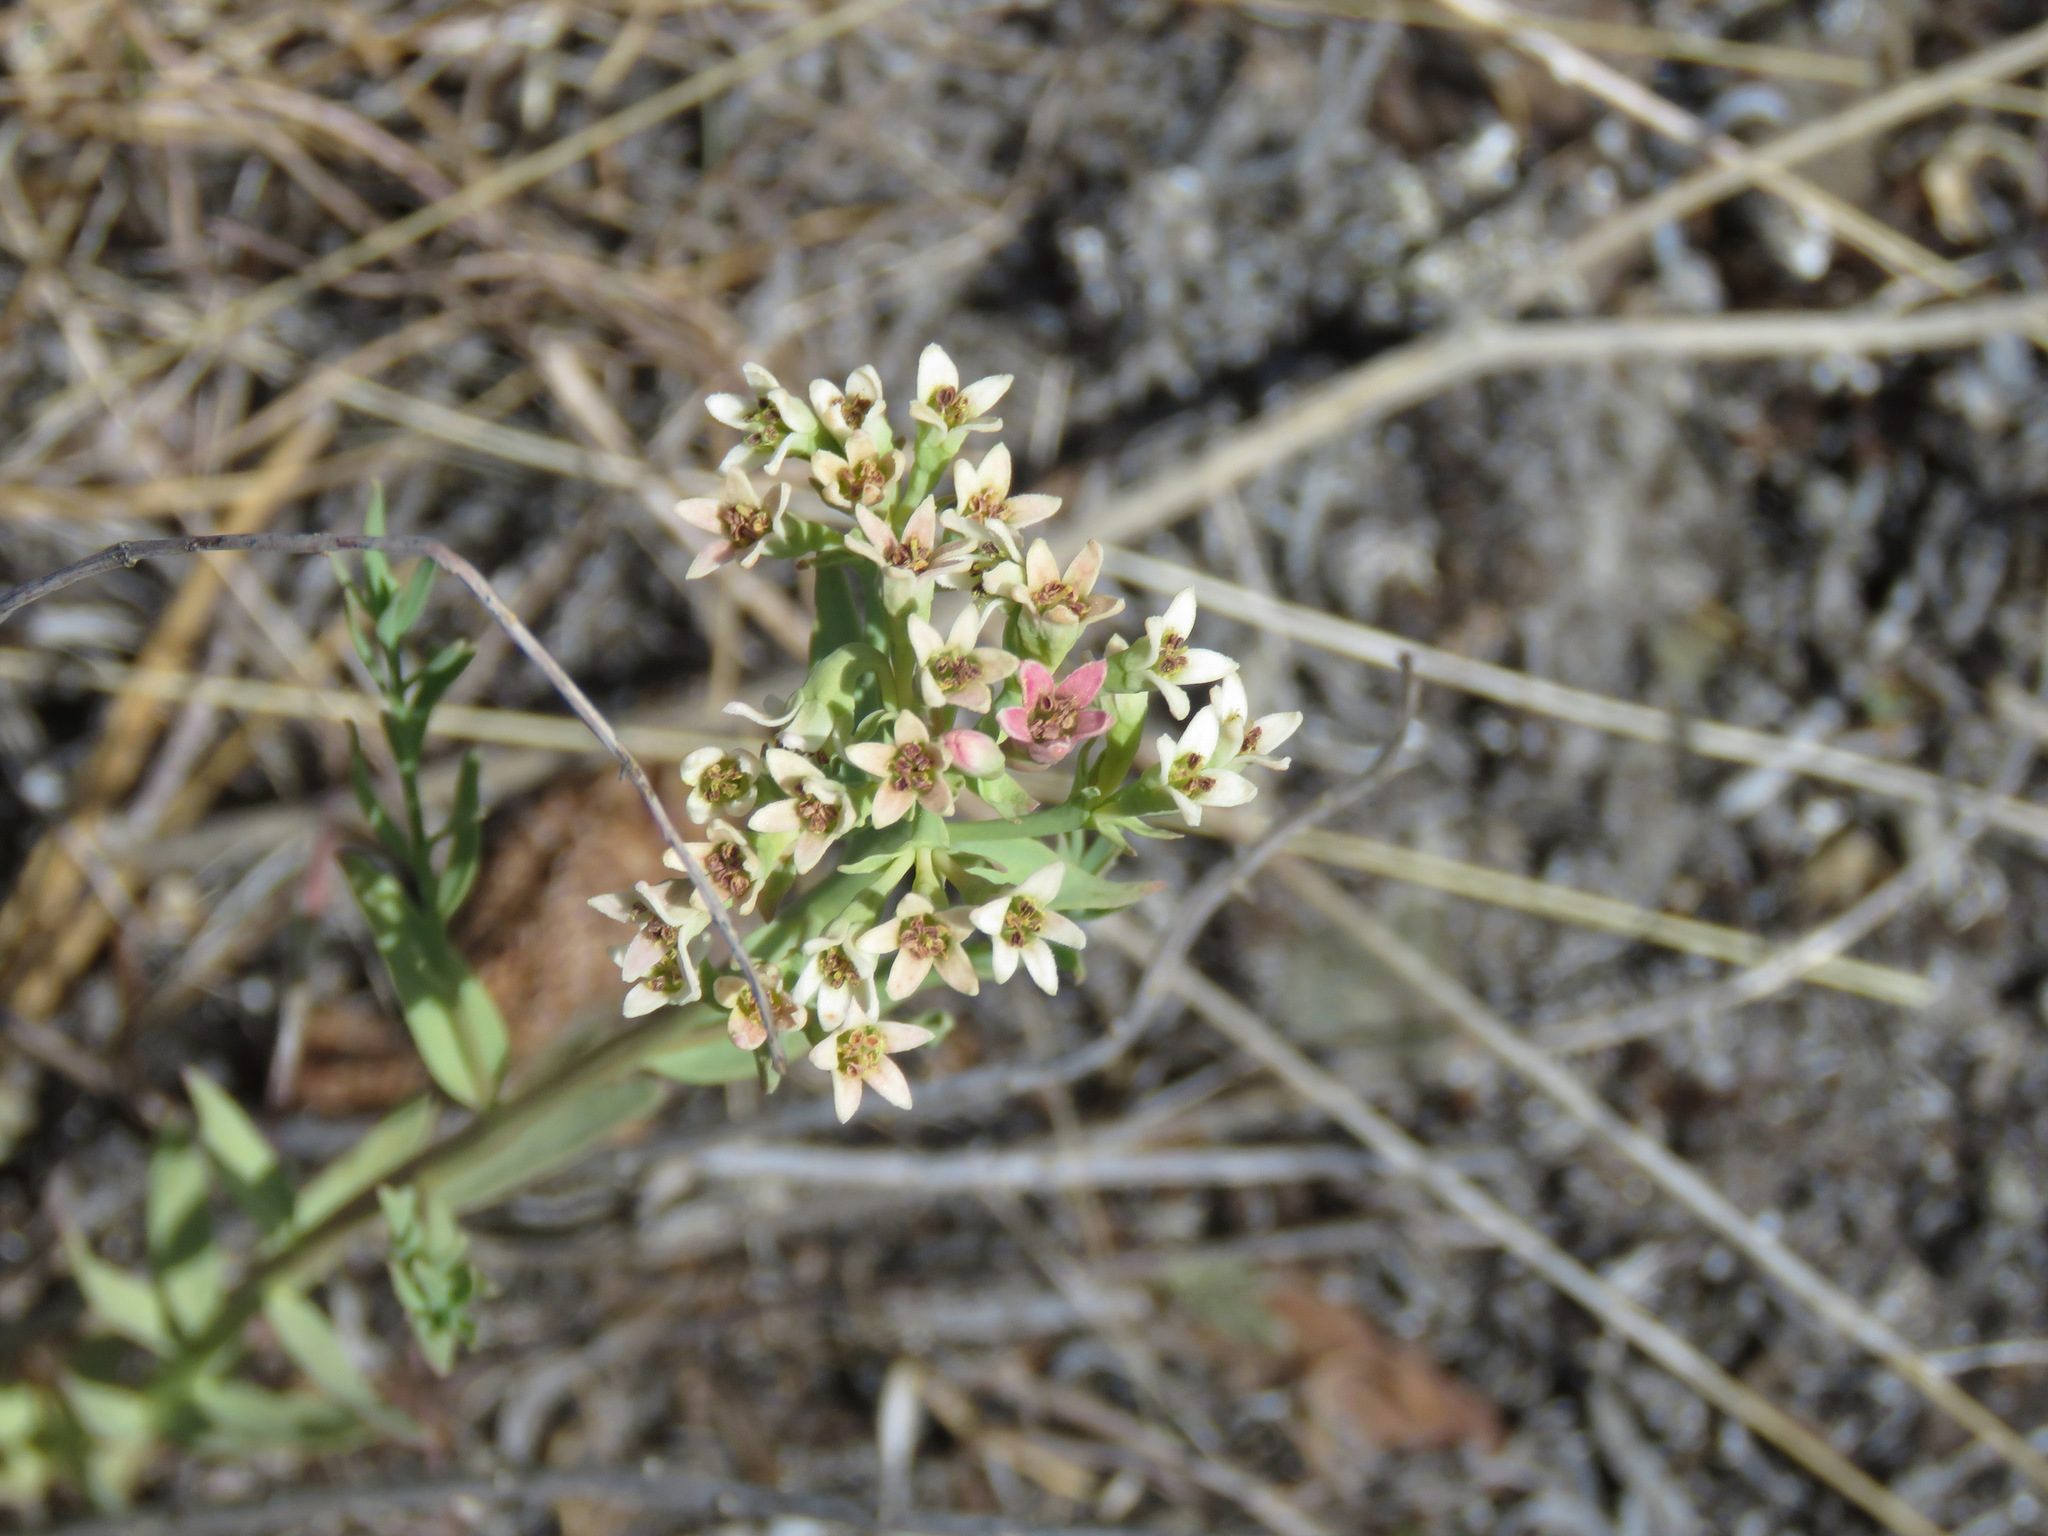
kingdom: Plantae
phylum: Tracheophyta
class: Magnoliopsida
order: Santalales
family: Comandraceae
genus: Comandra
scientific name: Comandra umbellata
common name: Bastard toadflax
